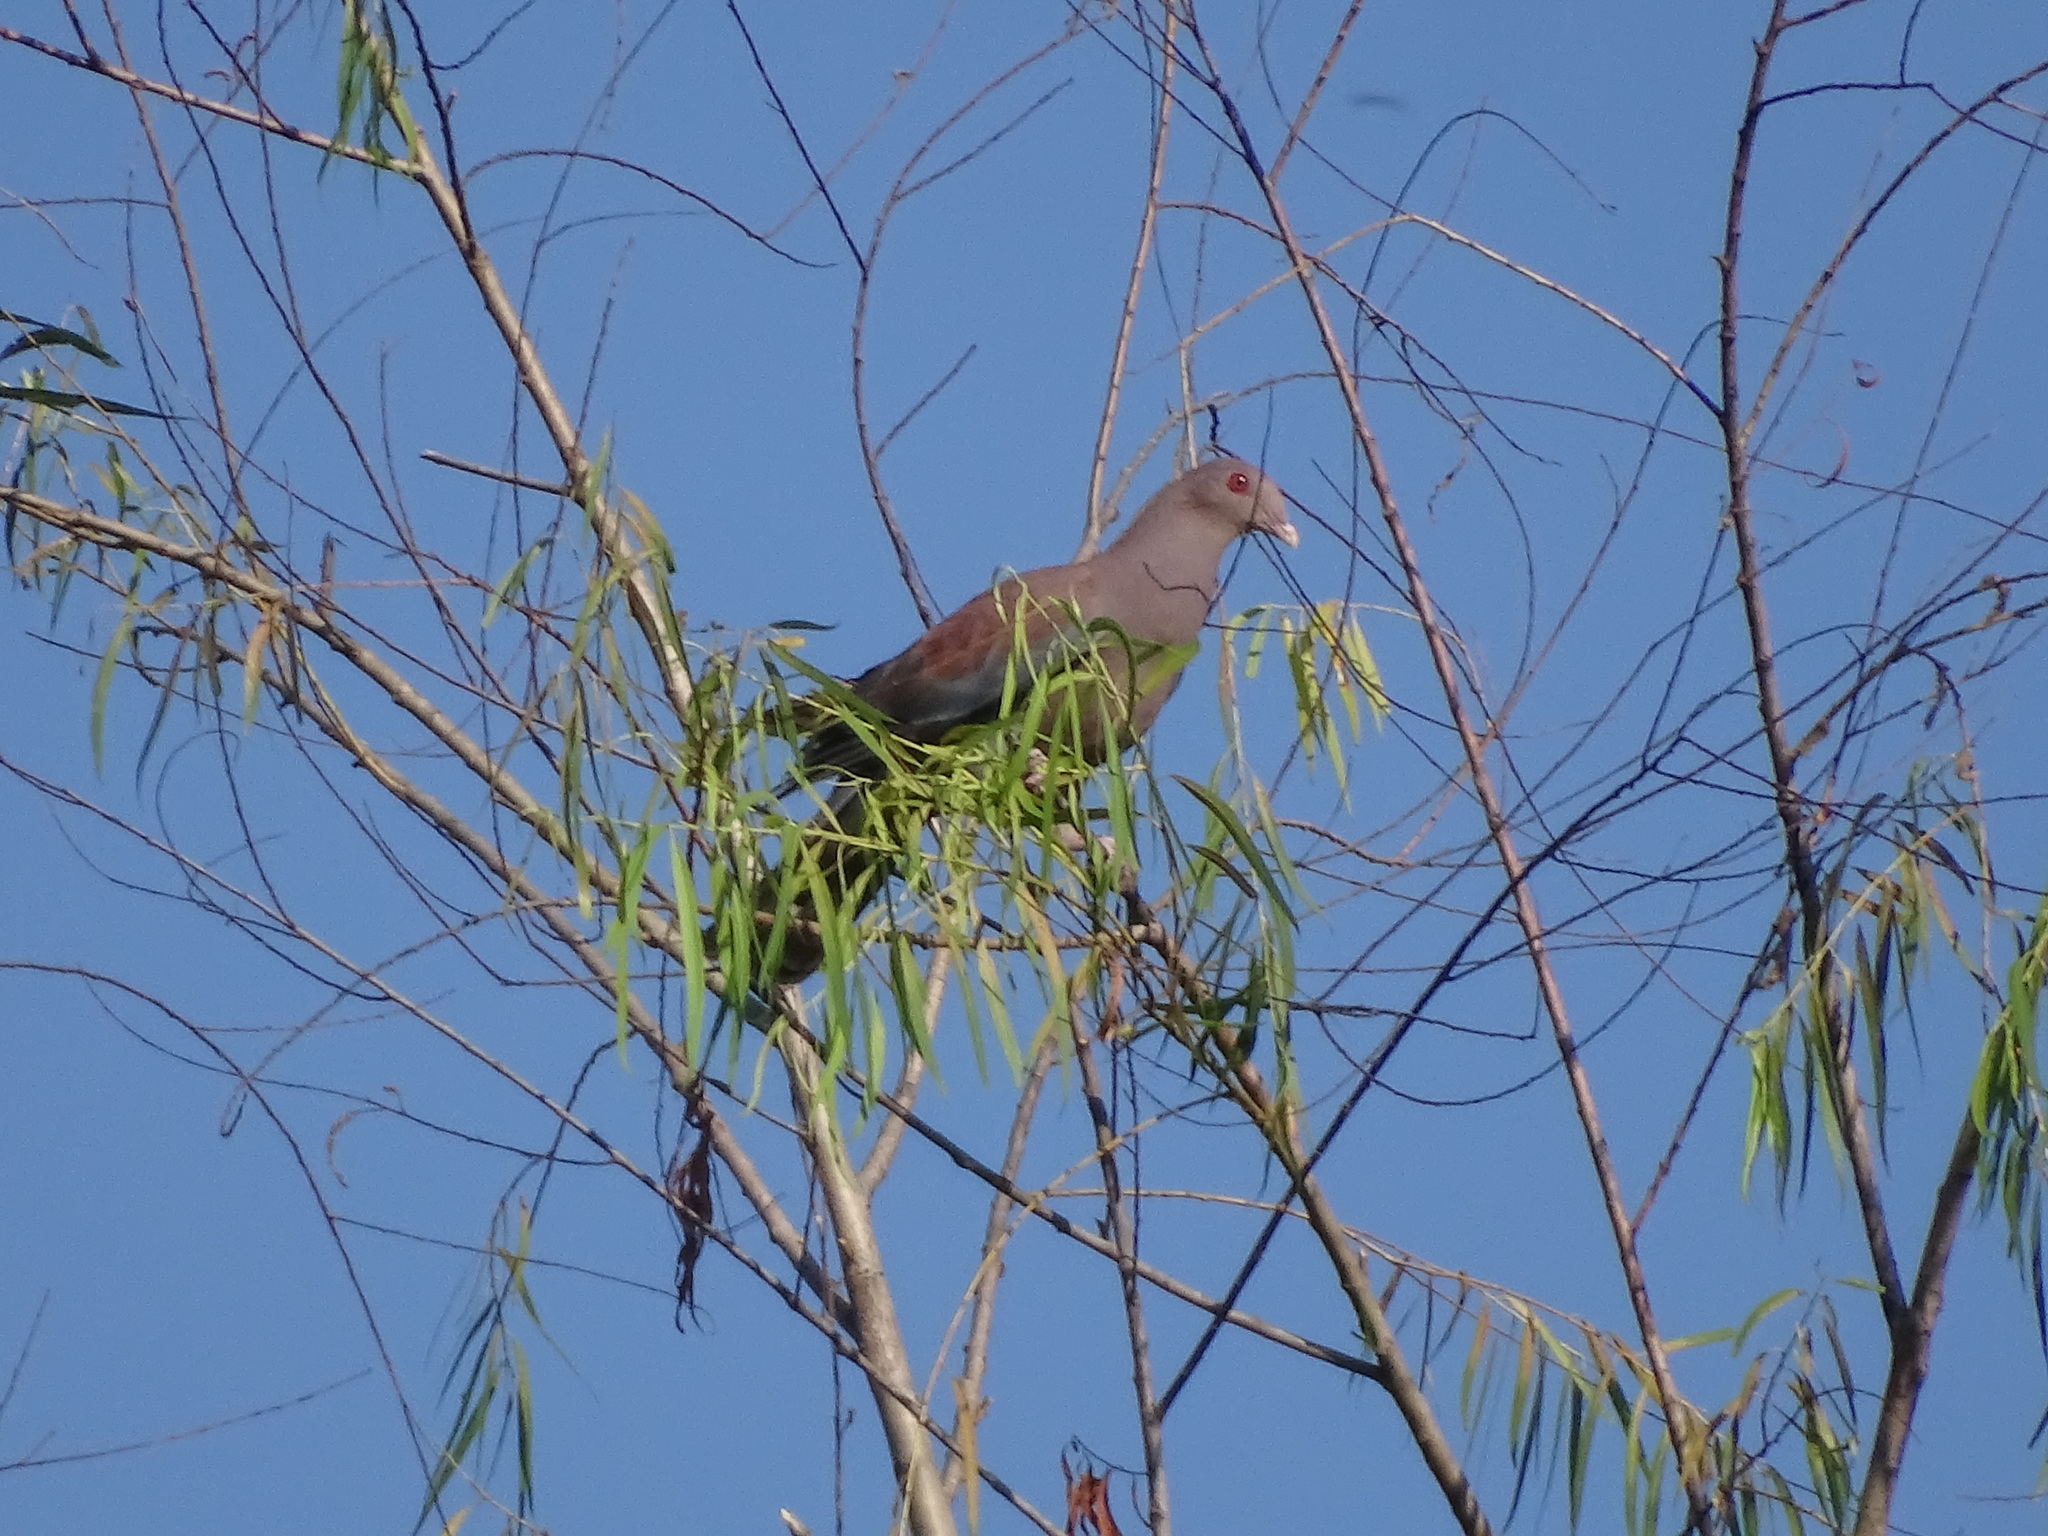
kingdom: Animalia
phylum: Chordata
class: Aves
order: Columbiformes
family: Columbidae
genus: Patagioenas
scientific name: Patagioenas flavirostris
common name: Red-billed pigeon
